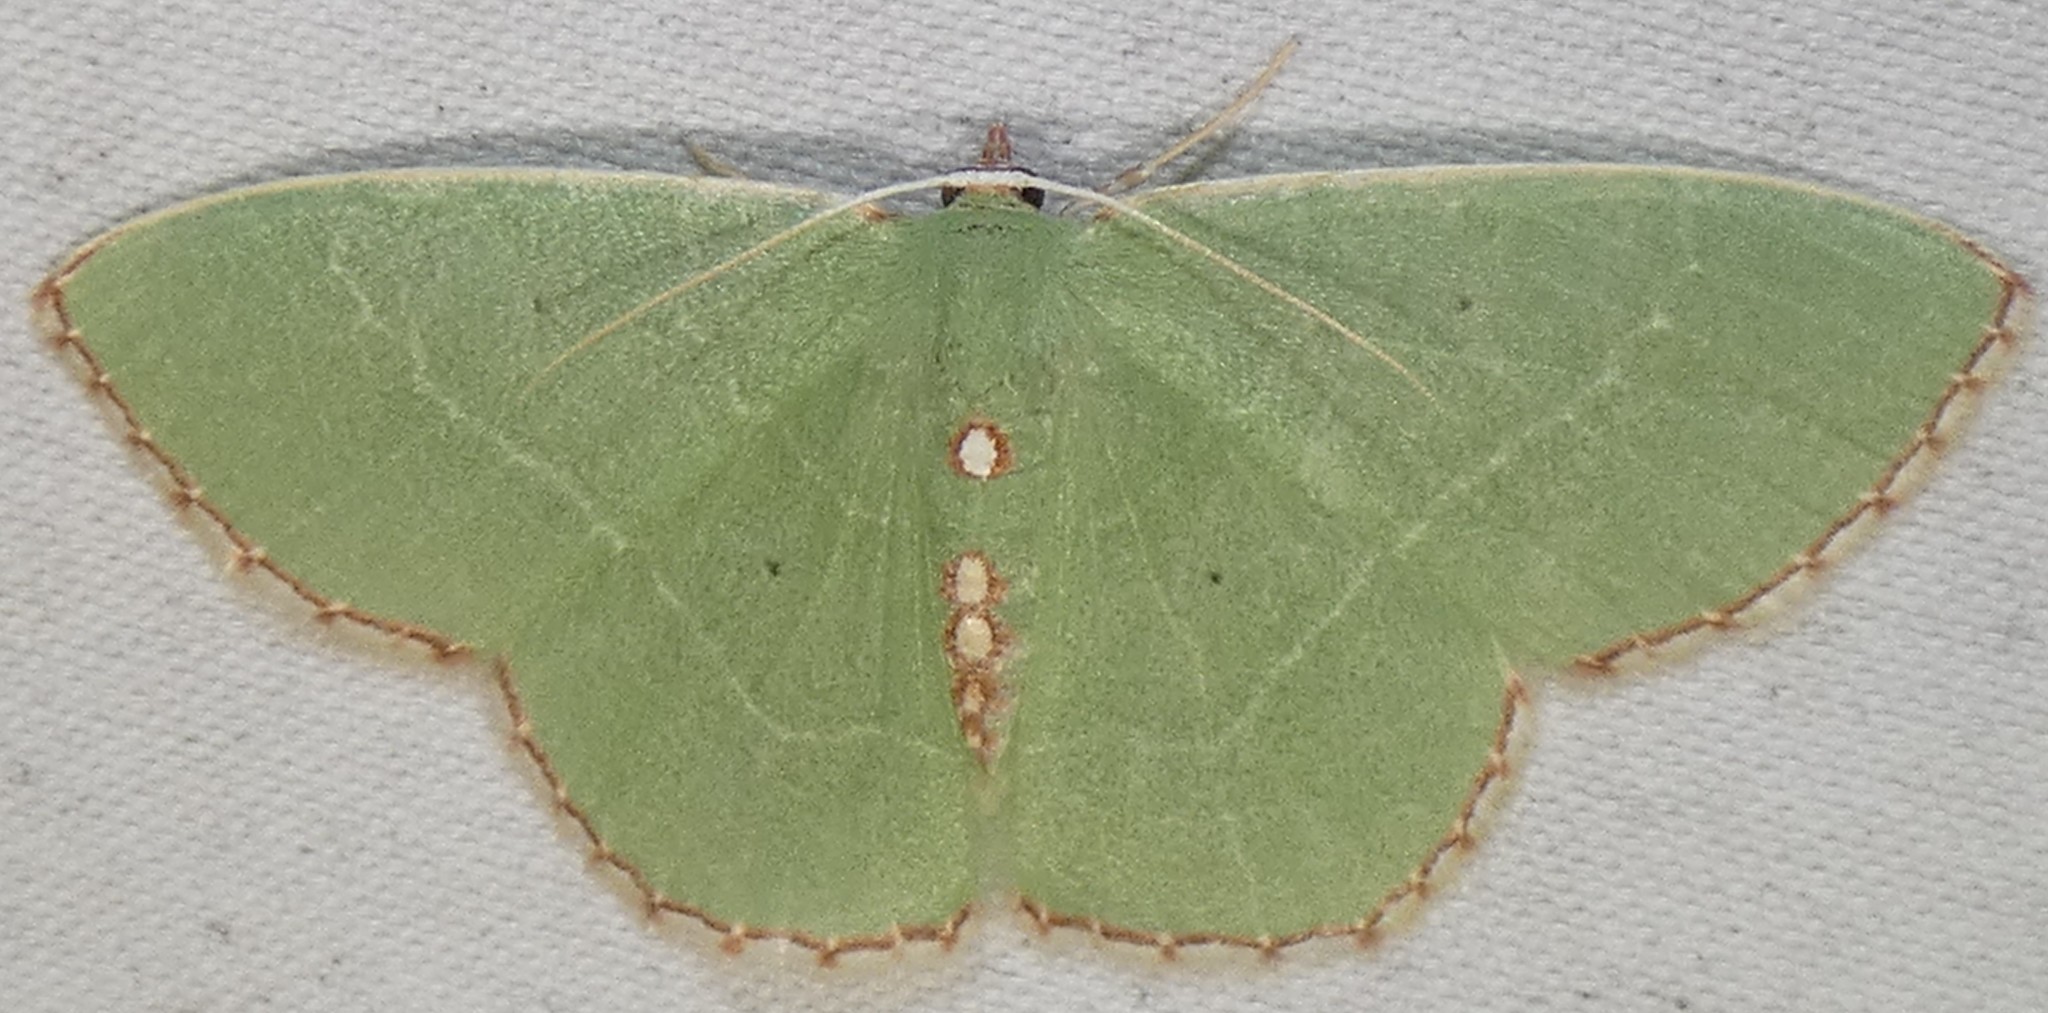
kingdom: Animalia
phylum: Arthropoda
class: Insecta
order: Lepidoptera
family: Geometridae
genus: Nemoria
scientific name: Nemoria lixaria
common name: Red-bordered emerald
